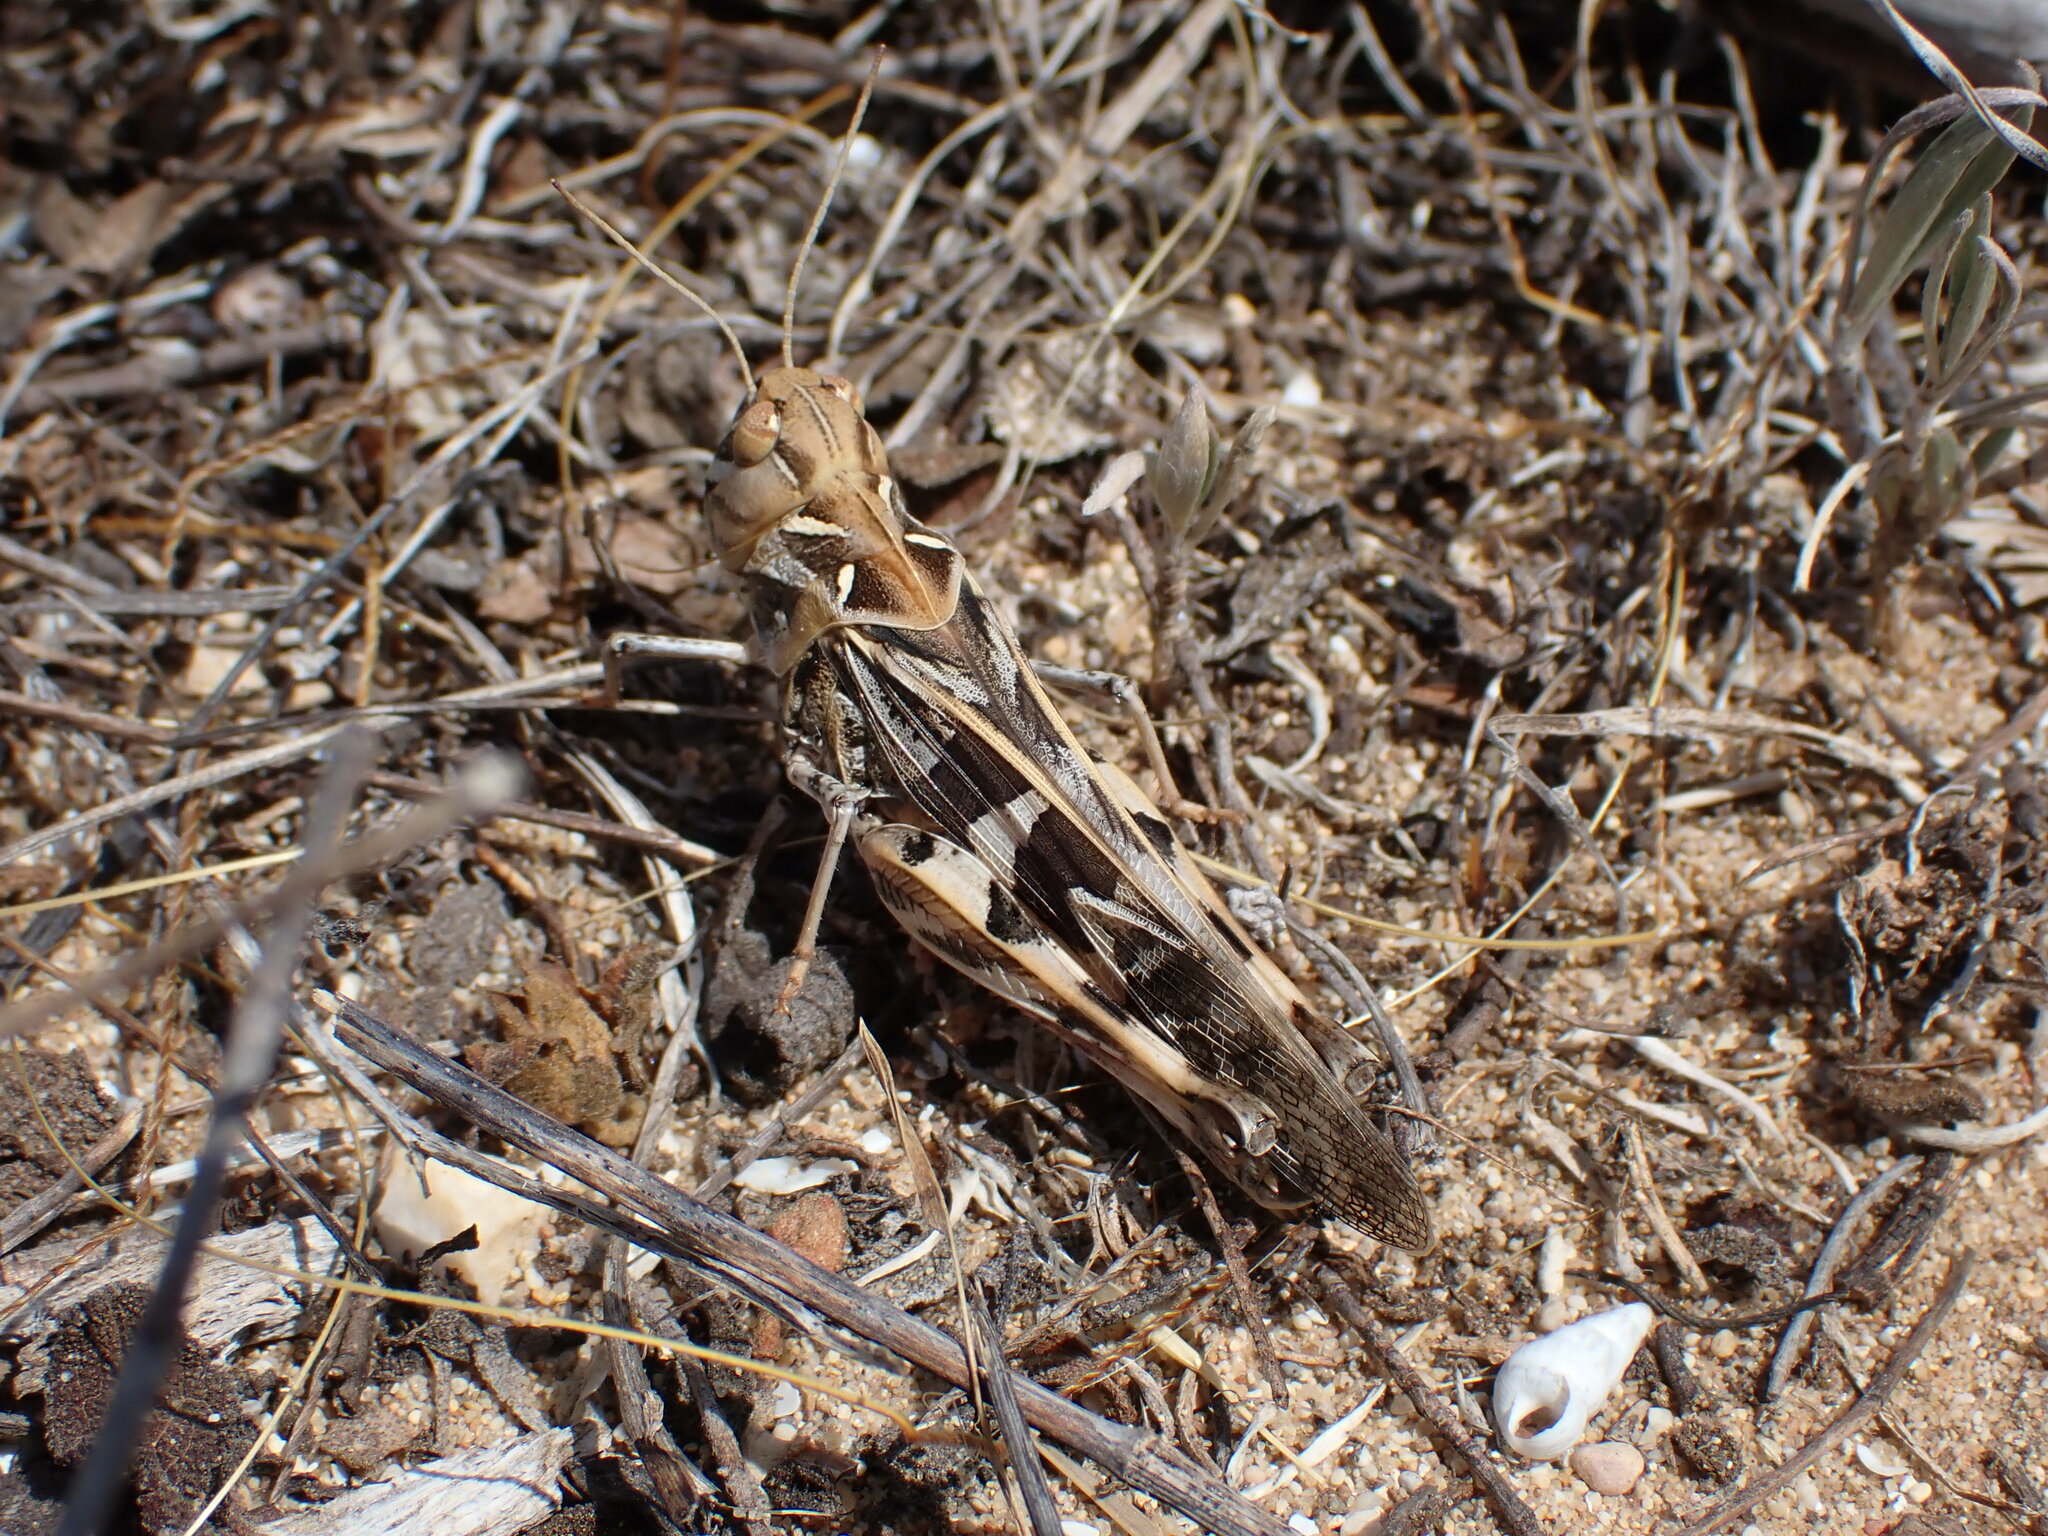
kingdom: Animalia
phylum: Arthropoda
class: Insecta
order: Orthoptera
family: Acrididae
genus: Oedaleus
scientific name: Oedaleus decorus
